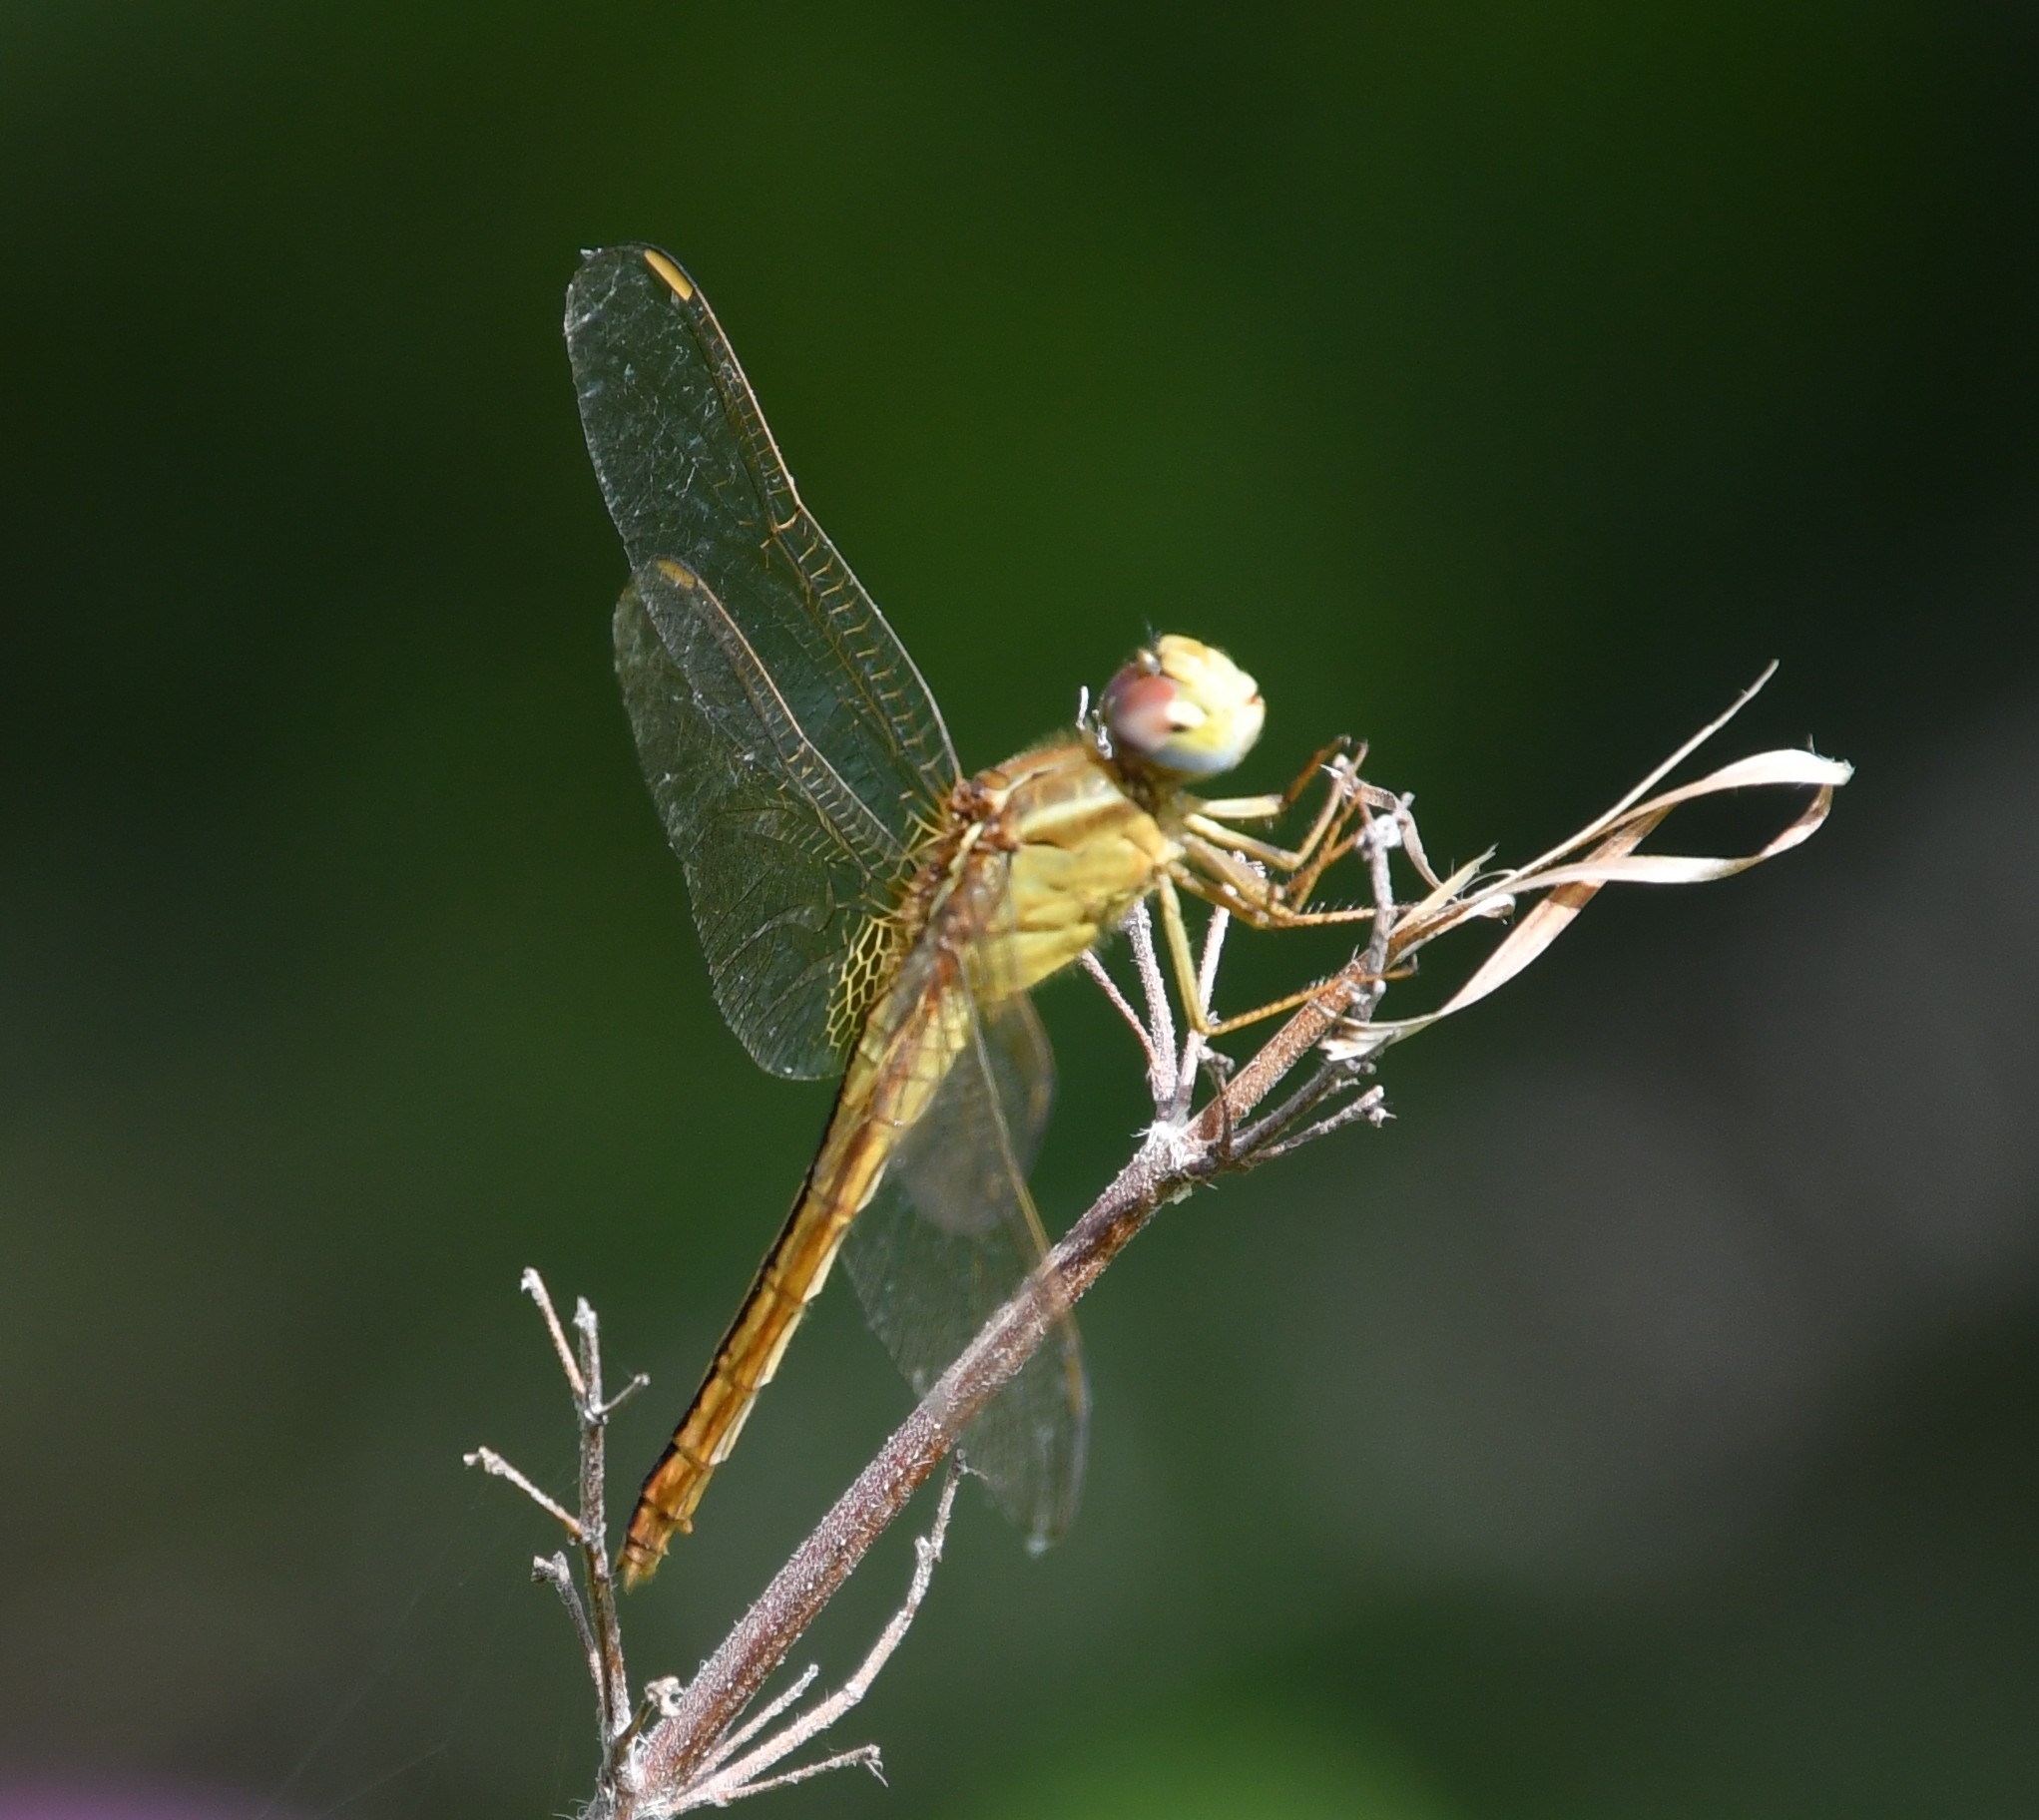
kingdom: Animalia
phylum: Arthropoda
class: Insecta
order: Odonata
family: Libellulidae
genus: Crocothemis
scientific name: Crocothemis servilia
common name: Scarlet skimmer
